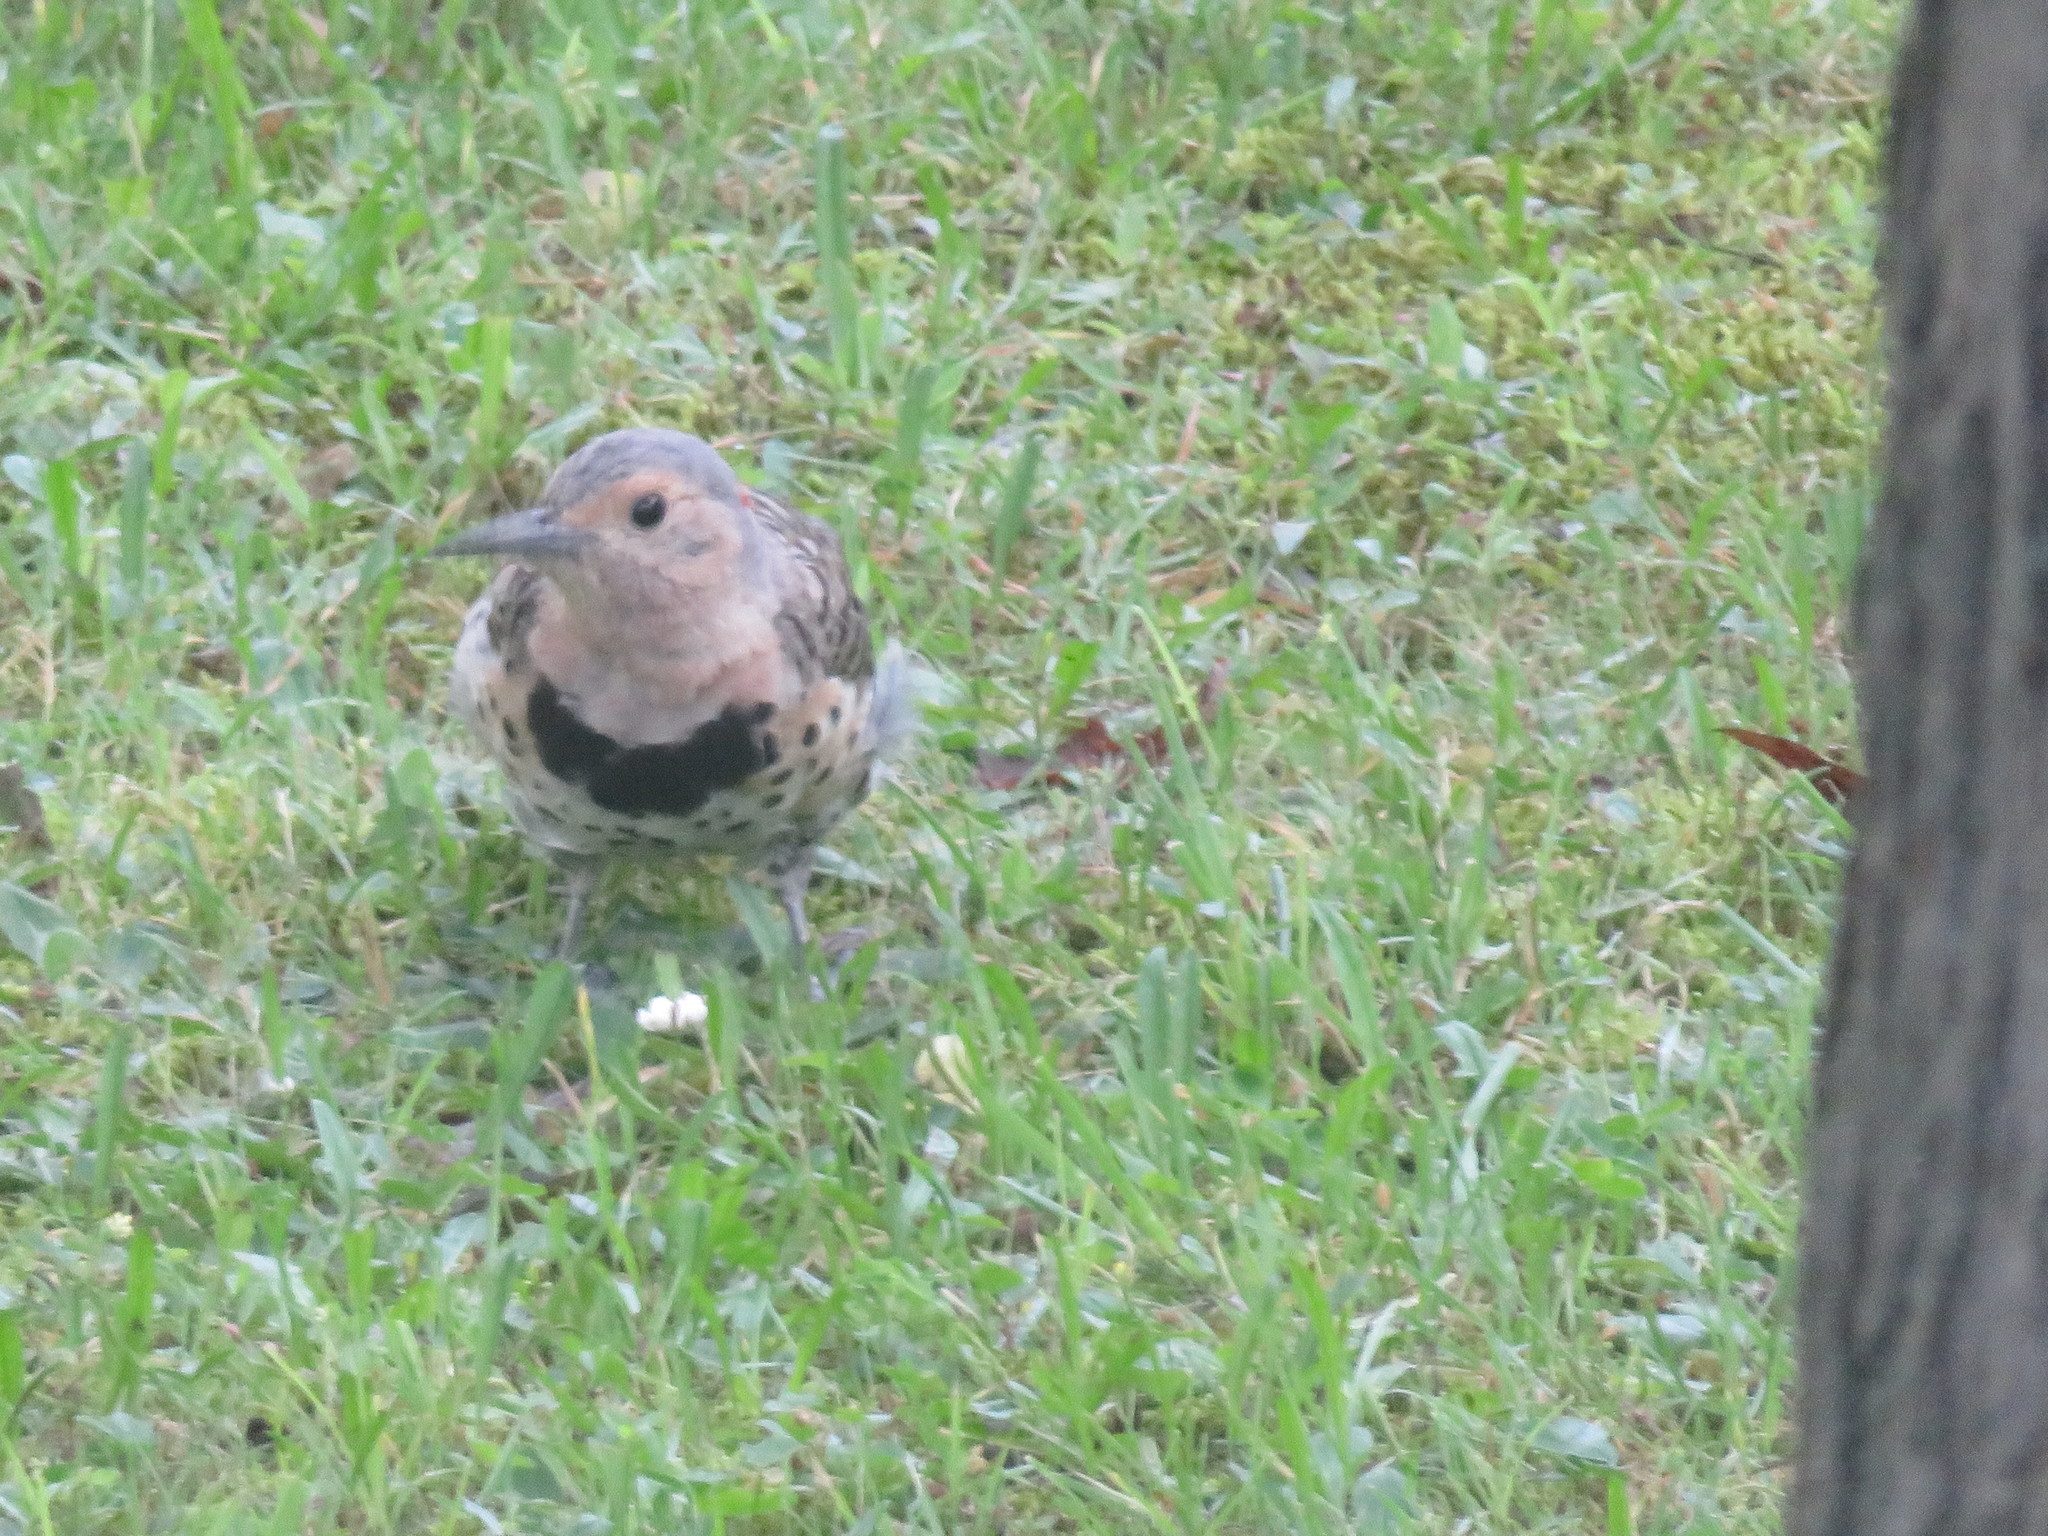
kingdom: Animalia
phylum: Chordata
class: Aves
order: Piciformes
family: Picidae
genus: Colaptes
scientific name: Colaptes auratus
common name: Northern flicker
